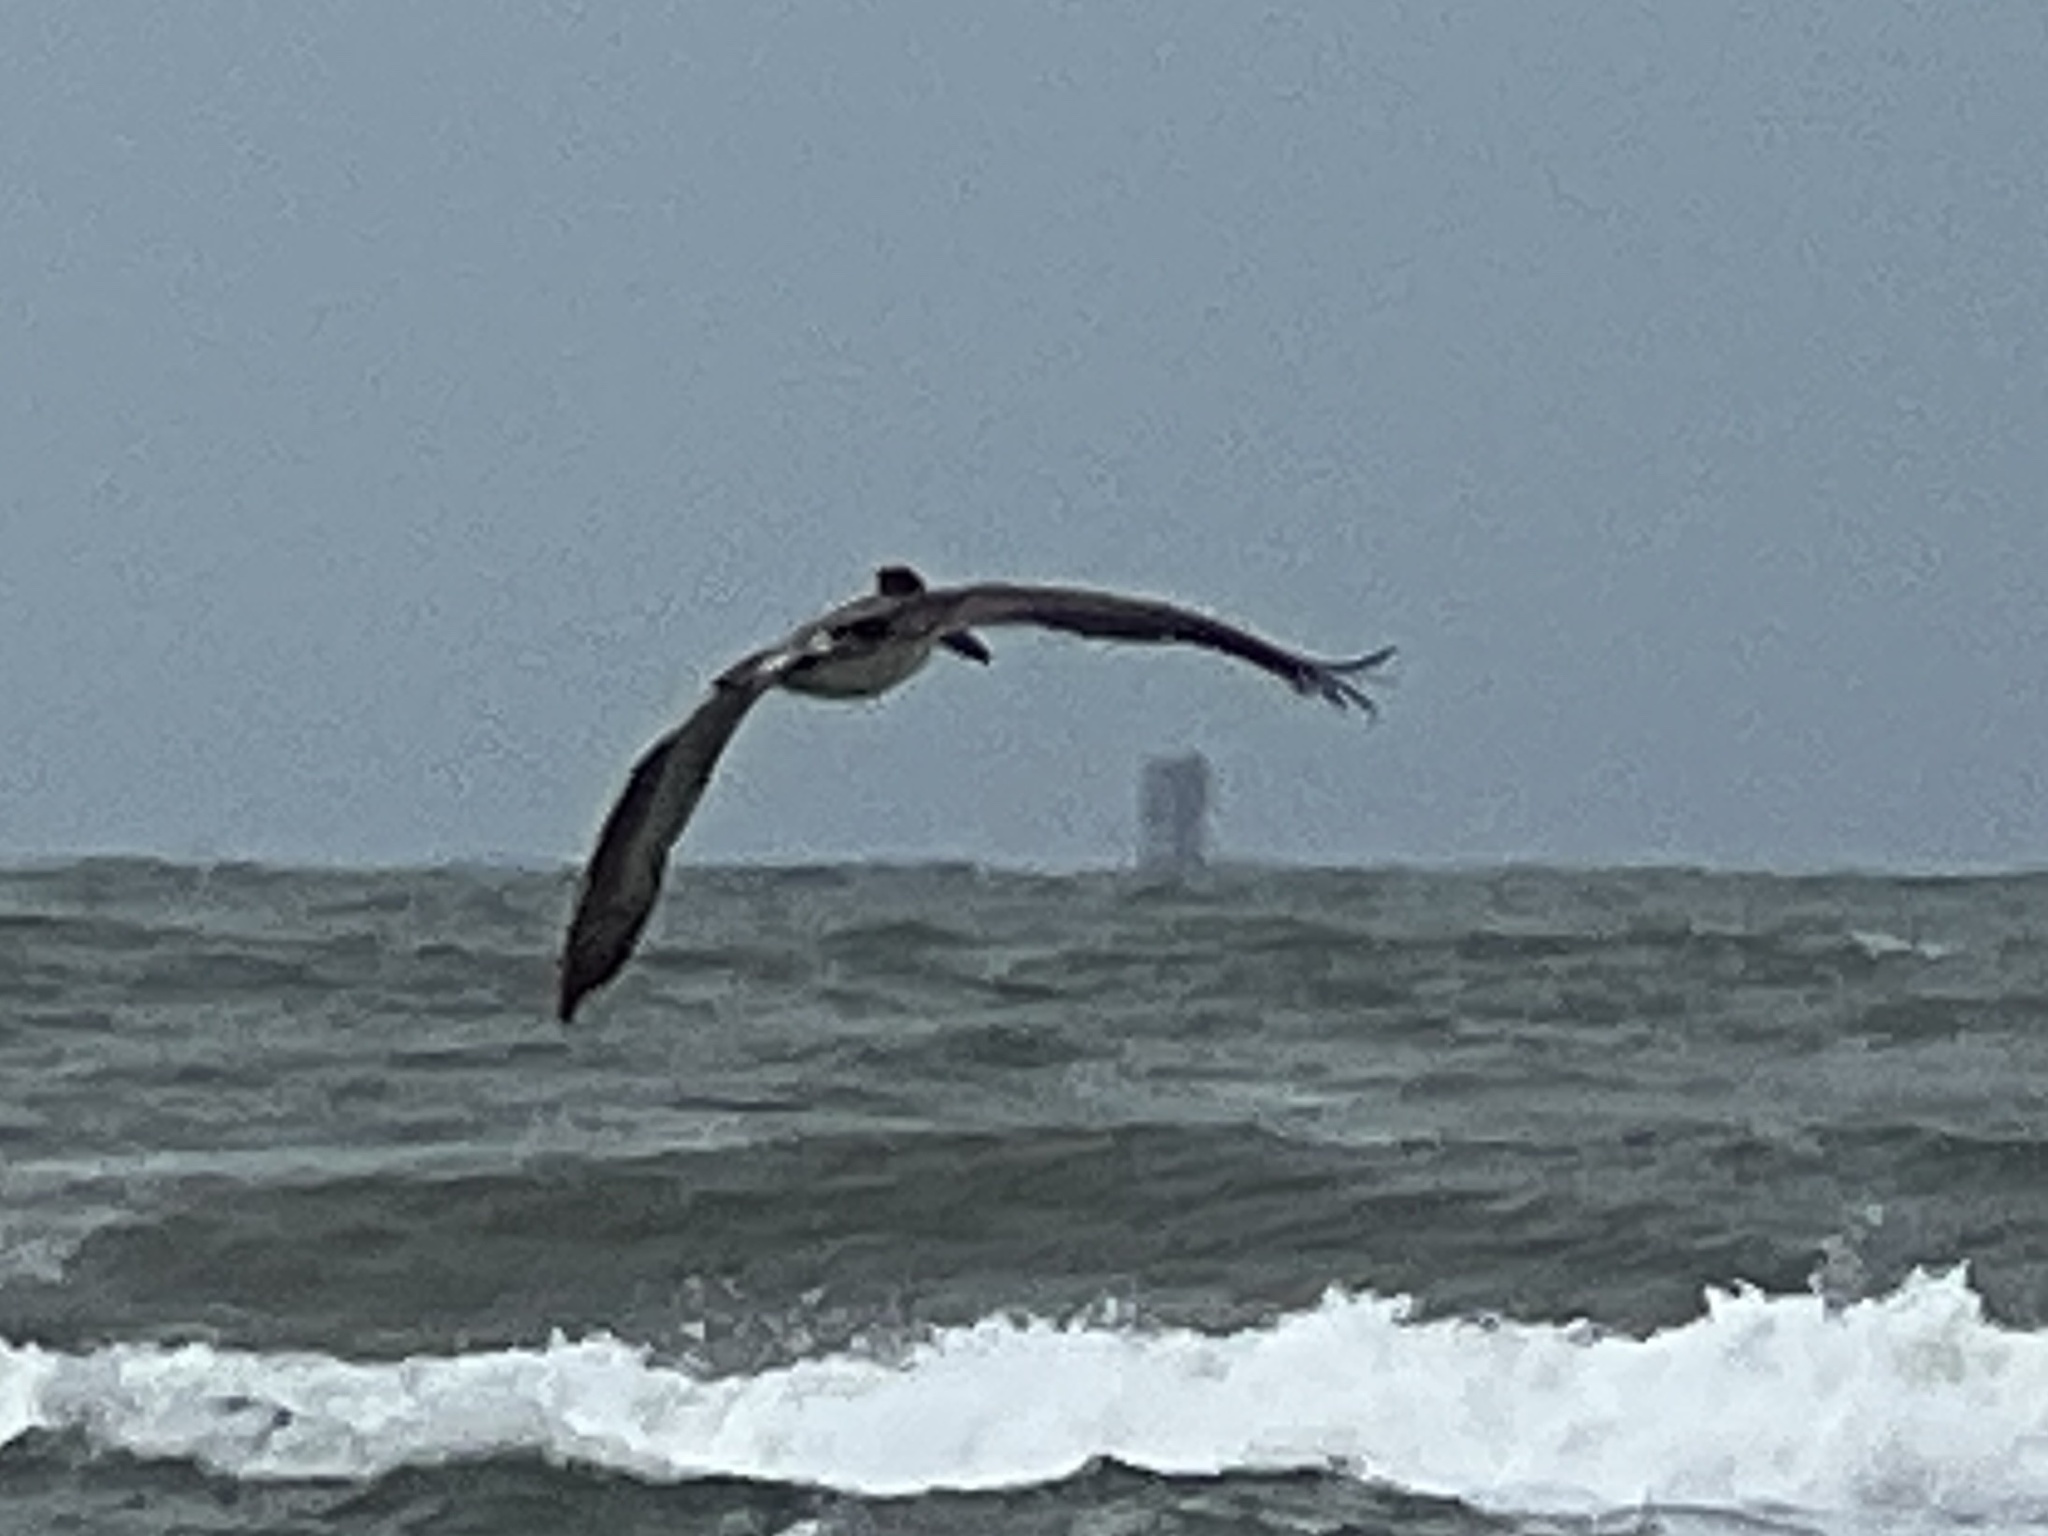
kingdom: Animalia
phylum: Chordata
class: Aves
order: Pelecaniformes
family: Pelecanidae
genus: Pelecanus
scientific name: Pelecanus occidentalis
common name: Brown pelican
